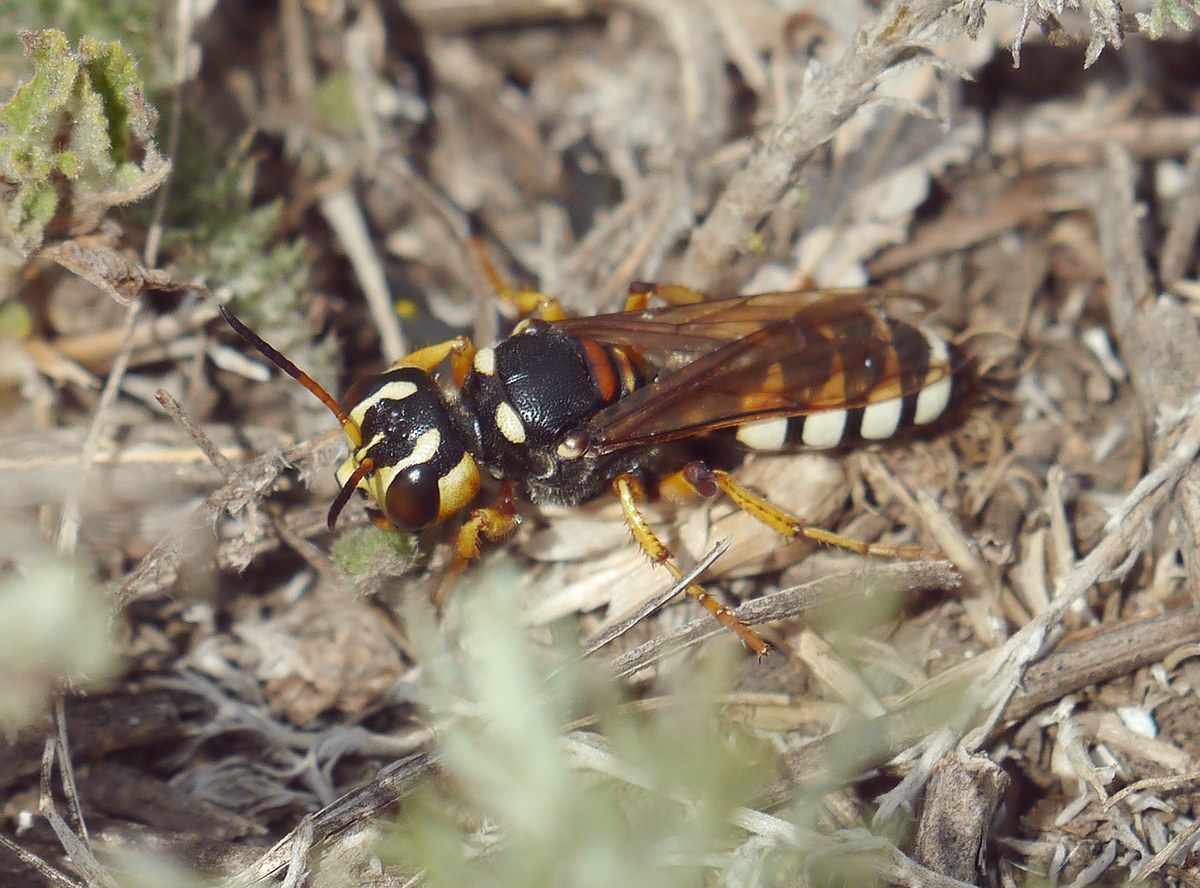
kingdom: Animalia
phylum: Arthropoda
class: Insecta
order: Hymenoptera
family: Crabronidae
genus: Cerceris
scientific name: Cerceris tuberculata
